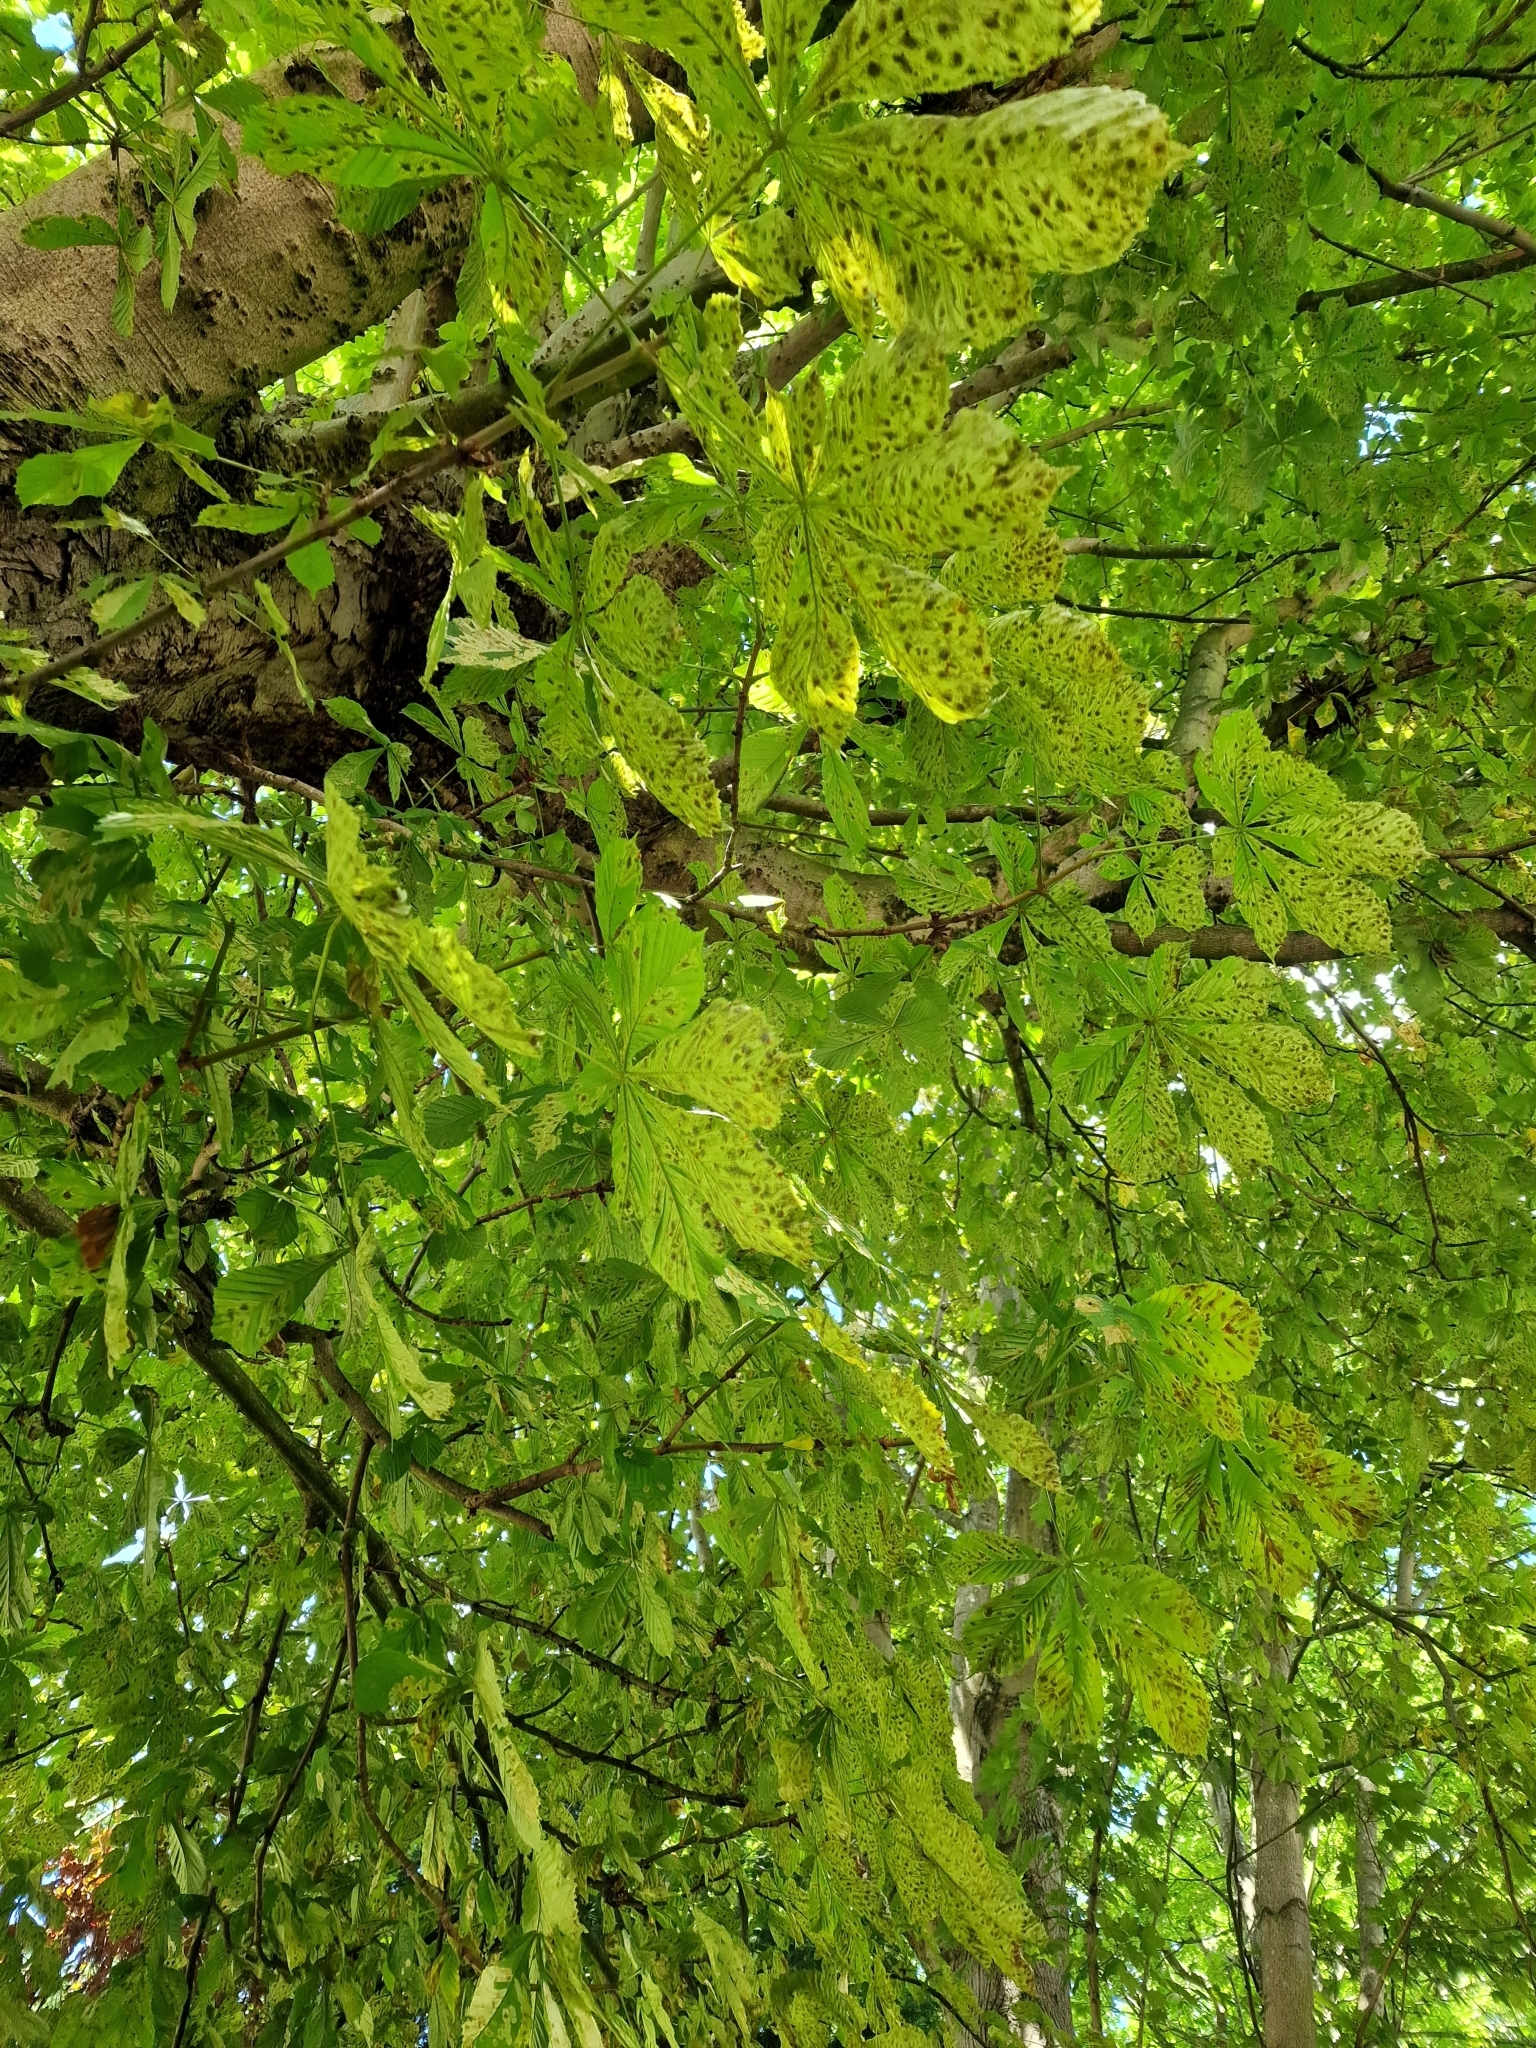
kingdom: Animalia
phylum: Arthropoda
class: Insecta
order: Lepidoptera
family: Gracillariidae
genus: Cameraria
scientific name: Cameraria ohridella
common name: Horse-chestnut leaf-miner
